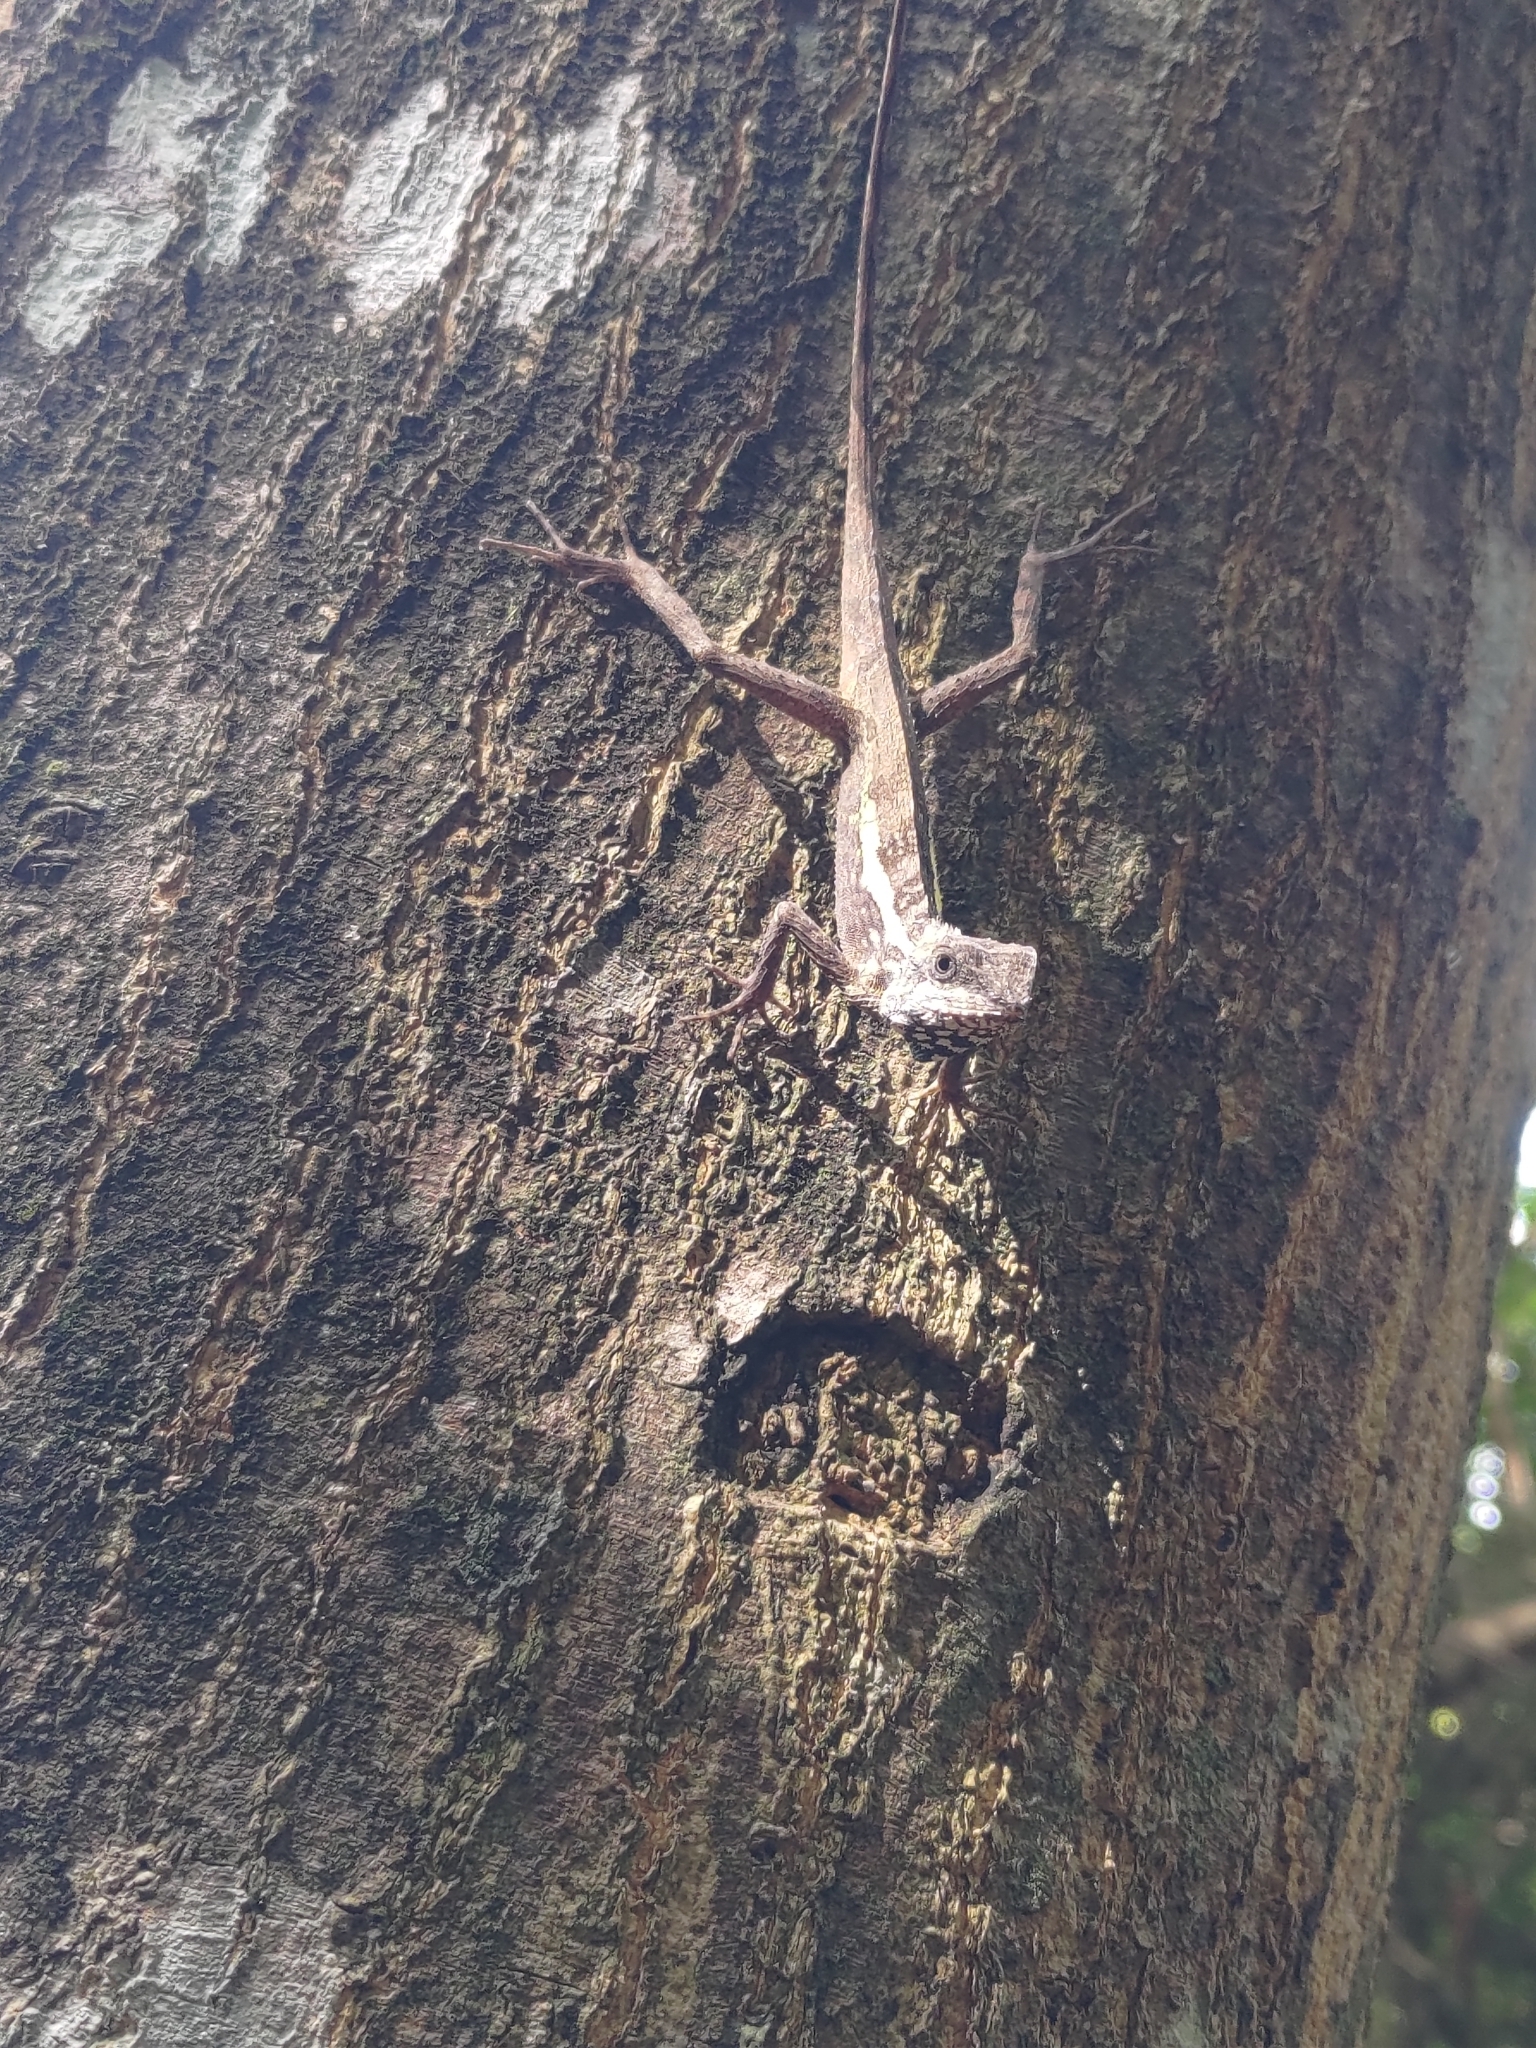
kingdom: Animalia
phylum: Chordata
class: Squamata
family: Agamidae
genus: Diploderma
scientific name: Diploderma swinhonis
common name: Taiwan japalure
